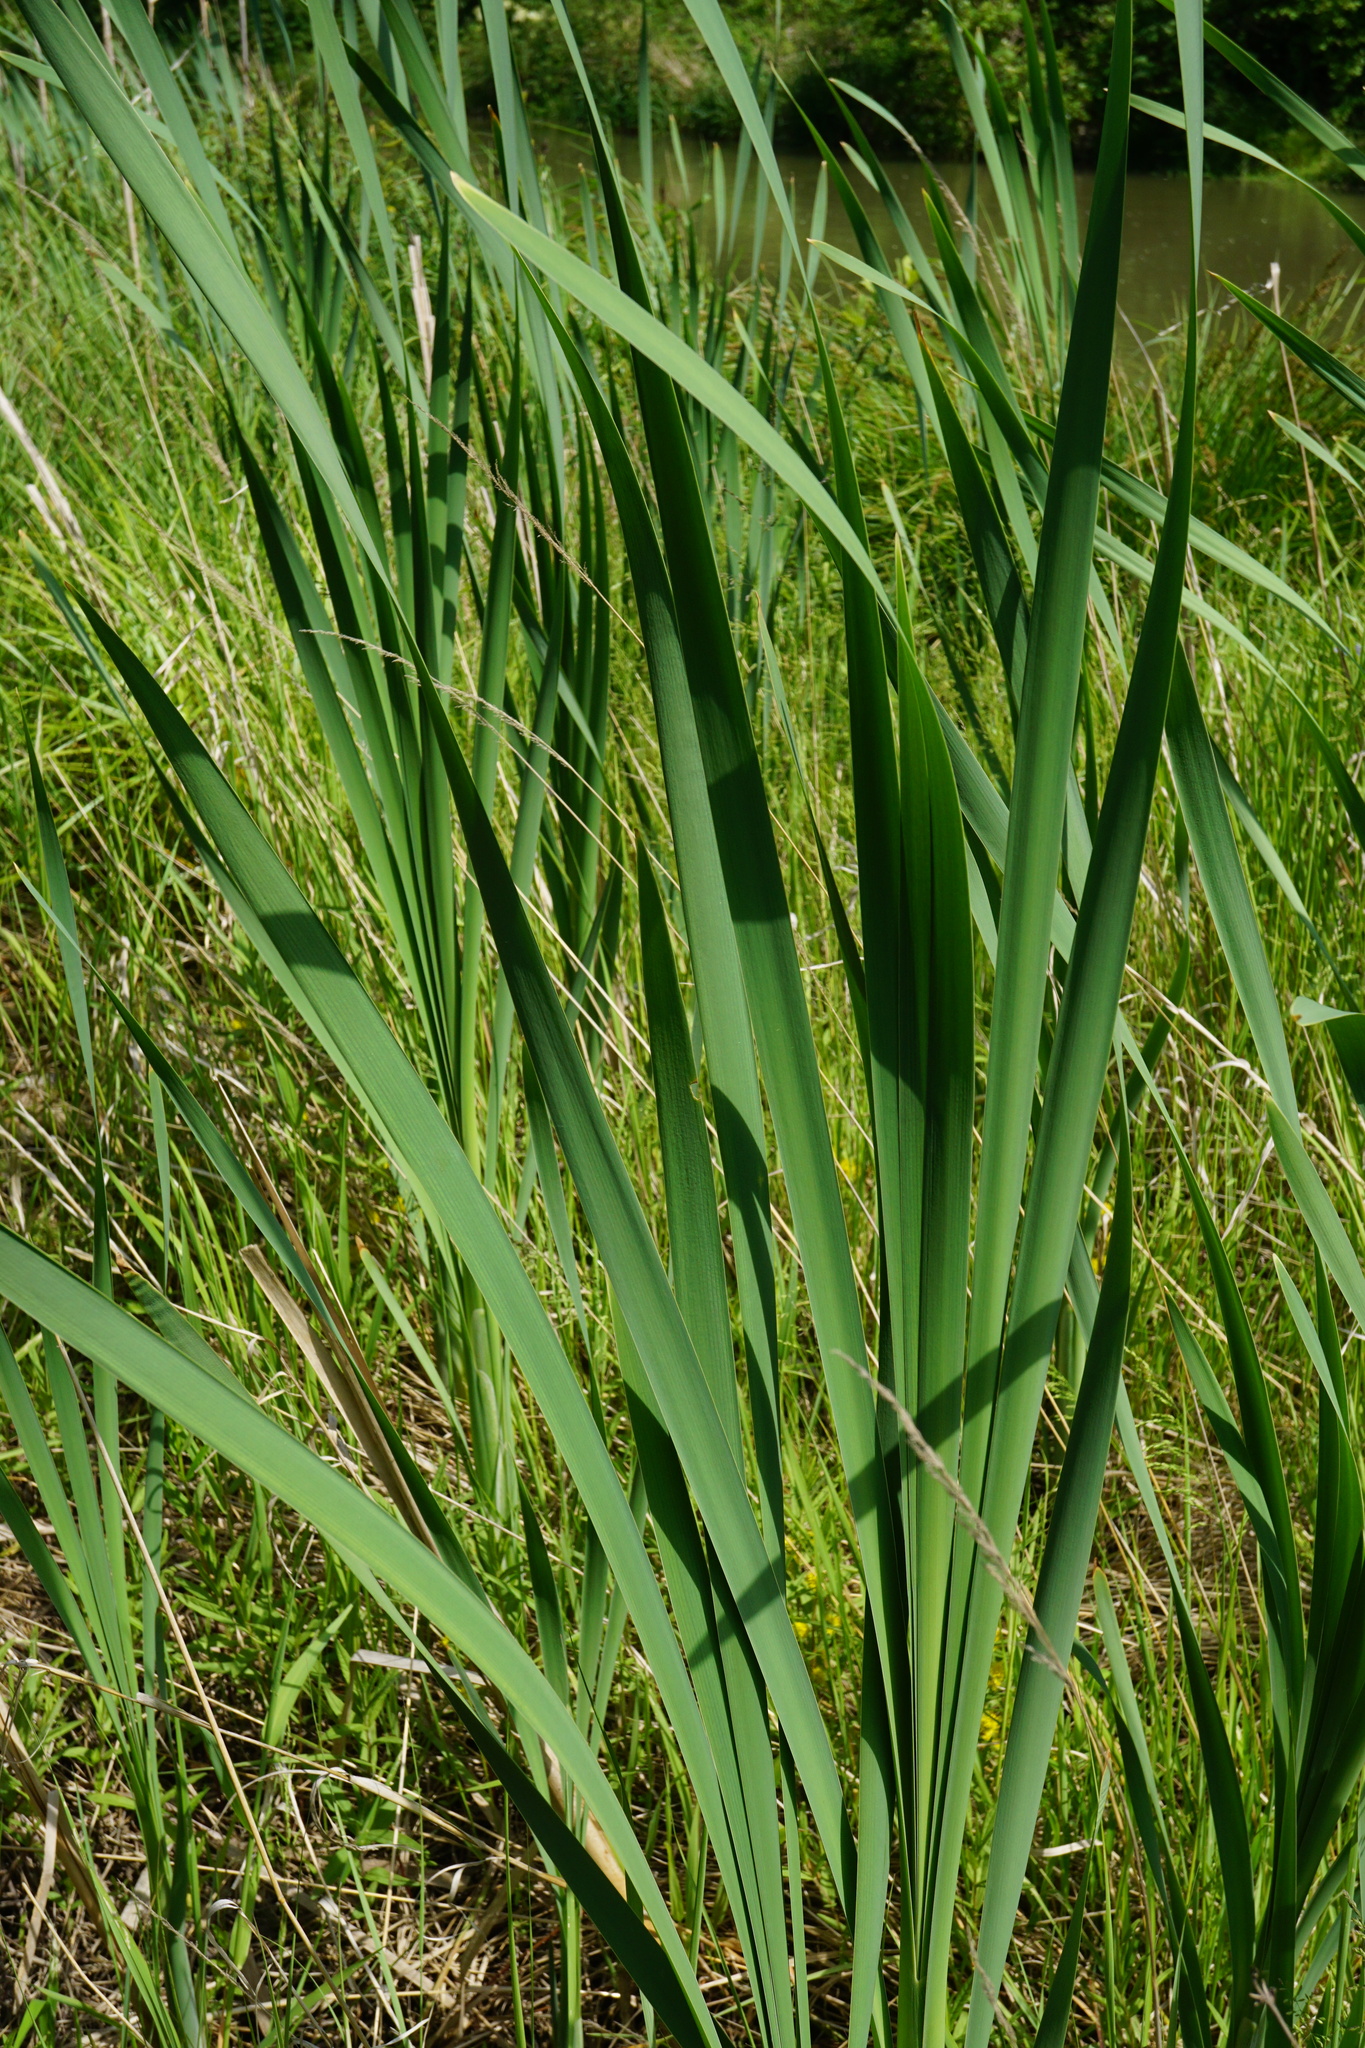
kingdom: Plantae
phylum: Tracheophyta
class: Liliopsida
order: Poales
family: Typhaceae
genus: Typha
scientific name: Typha latifolia
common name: Broadleaf cattail
